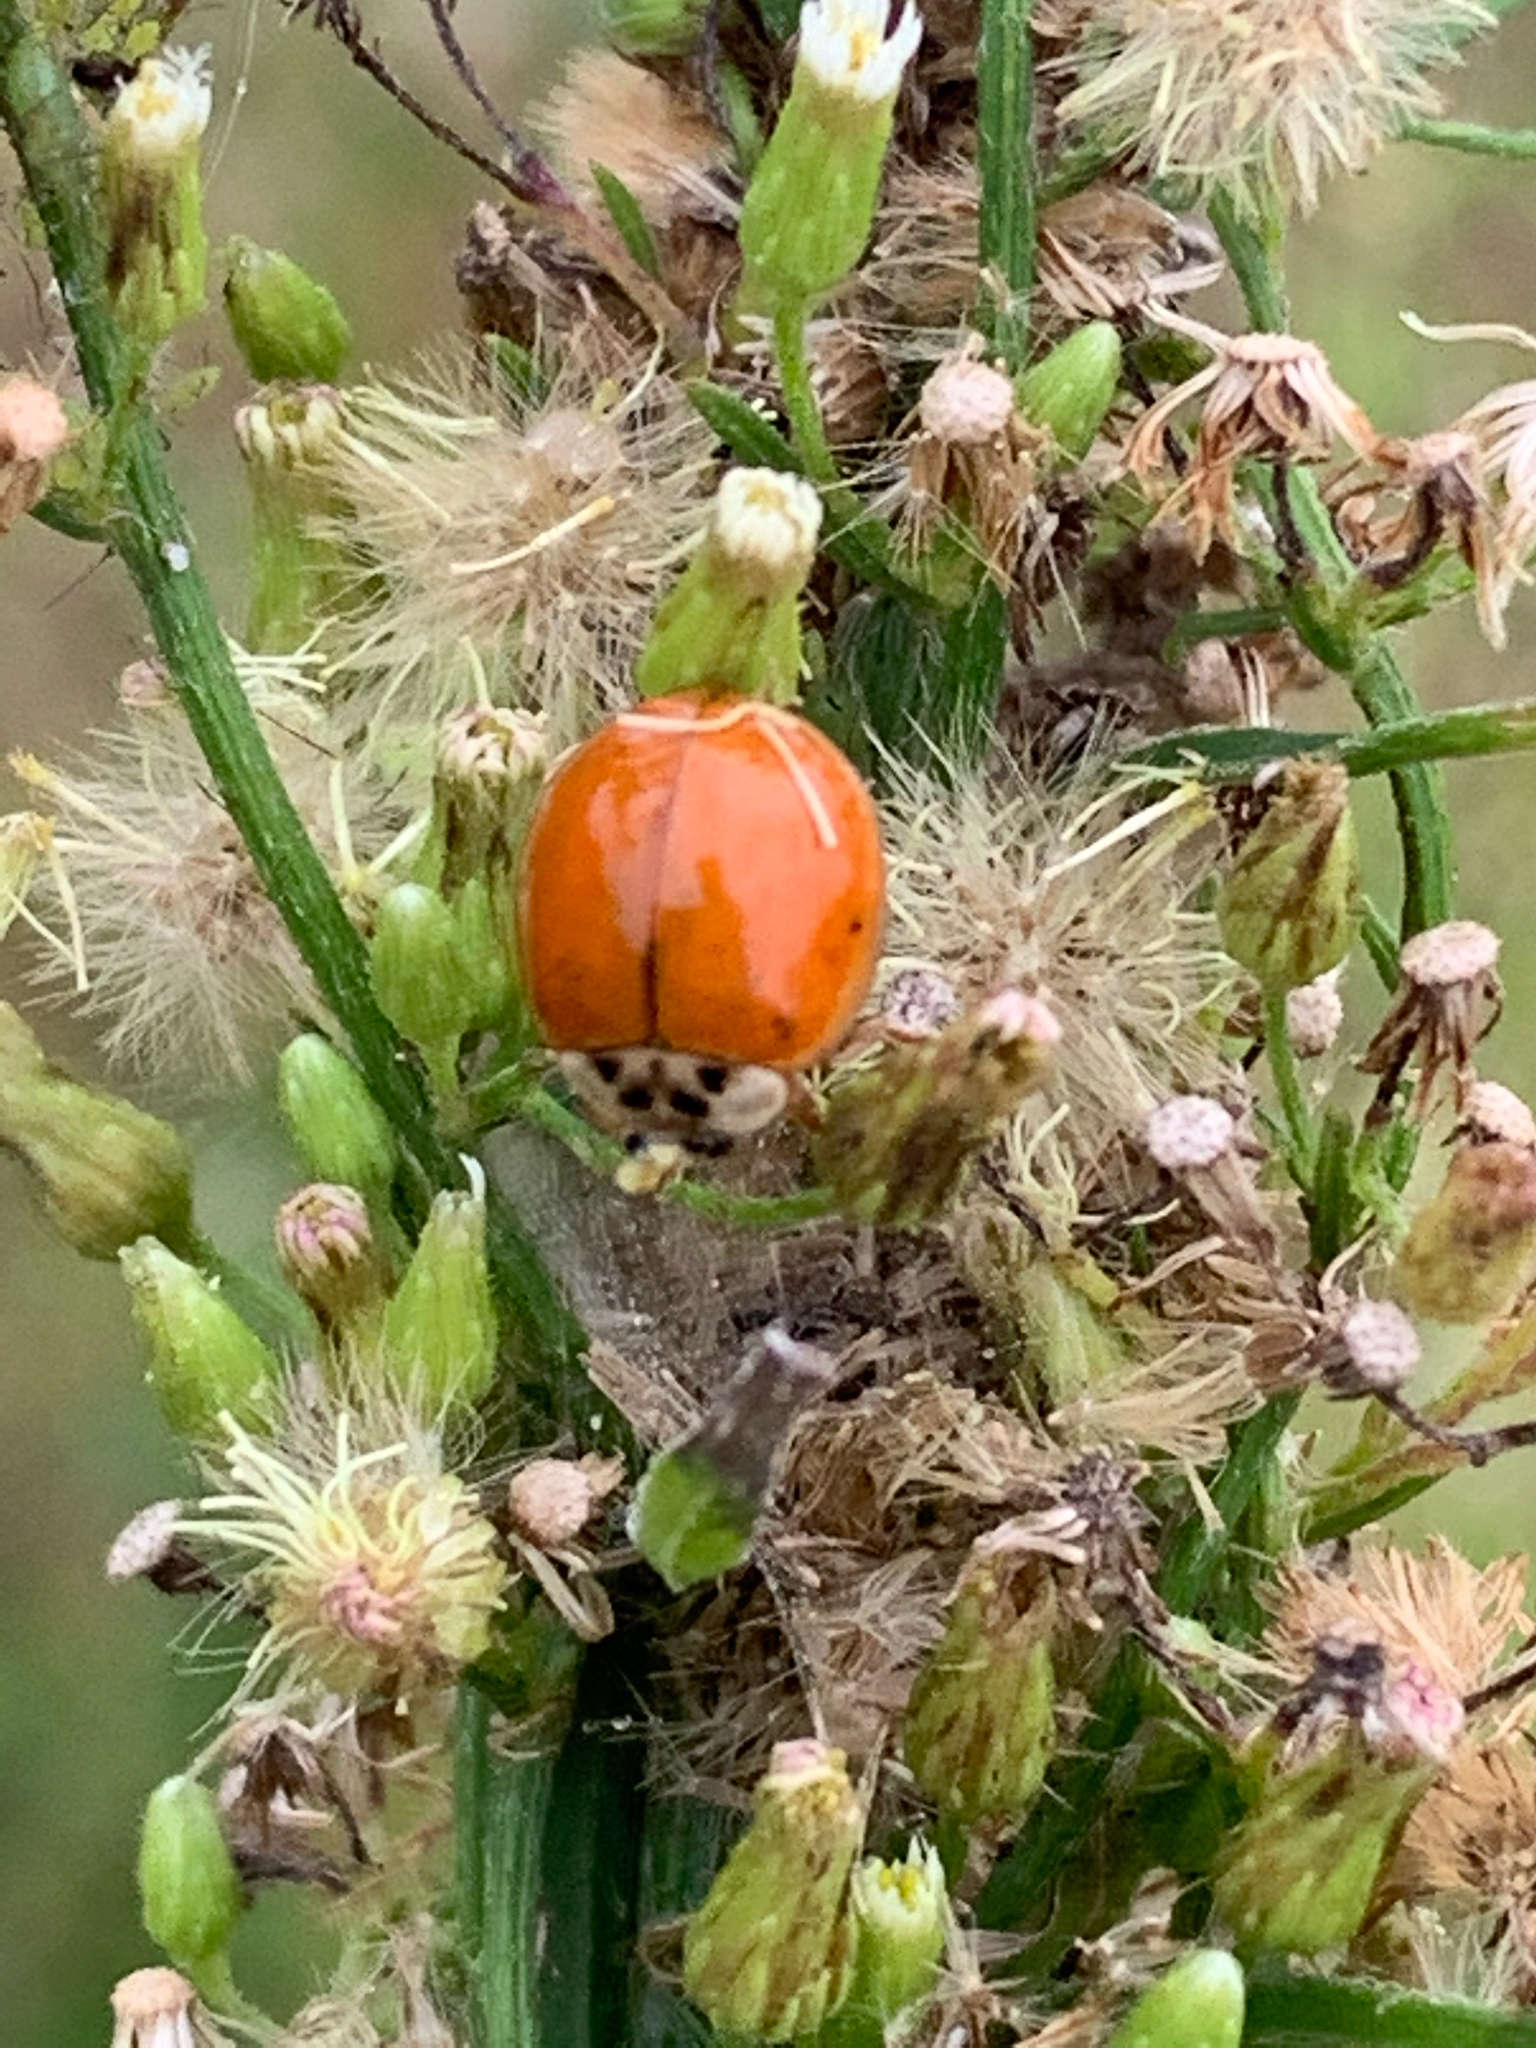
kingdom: Animalia
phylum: Arthropoda
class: Insecta
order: Coleoptera
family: Coccinellidae
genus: Harmonia
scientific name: Harmonia axyridis
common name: Harlequin ladybird
